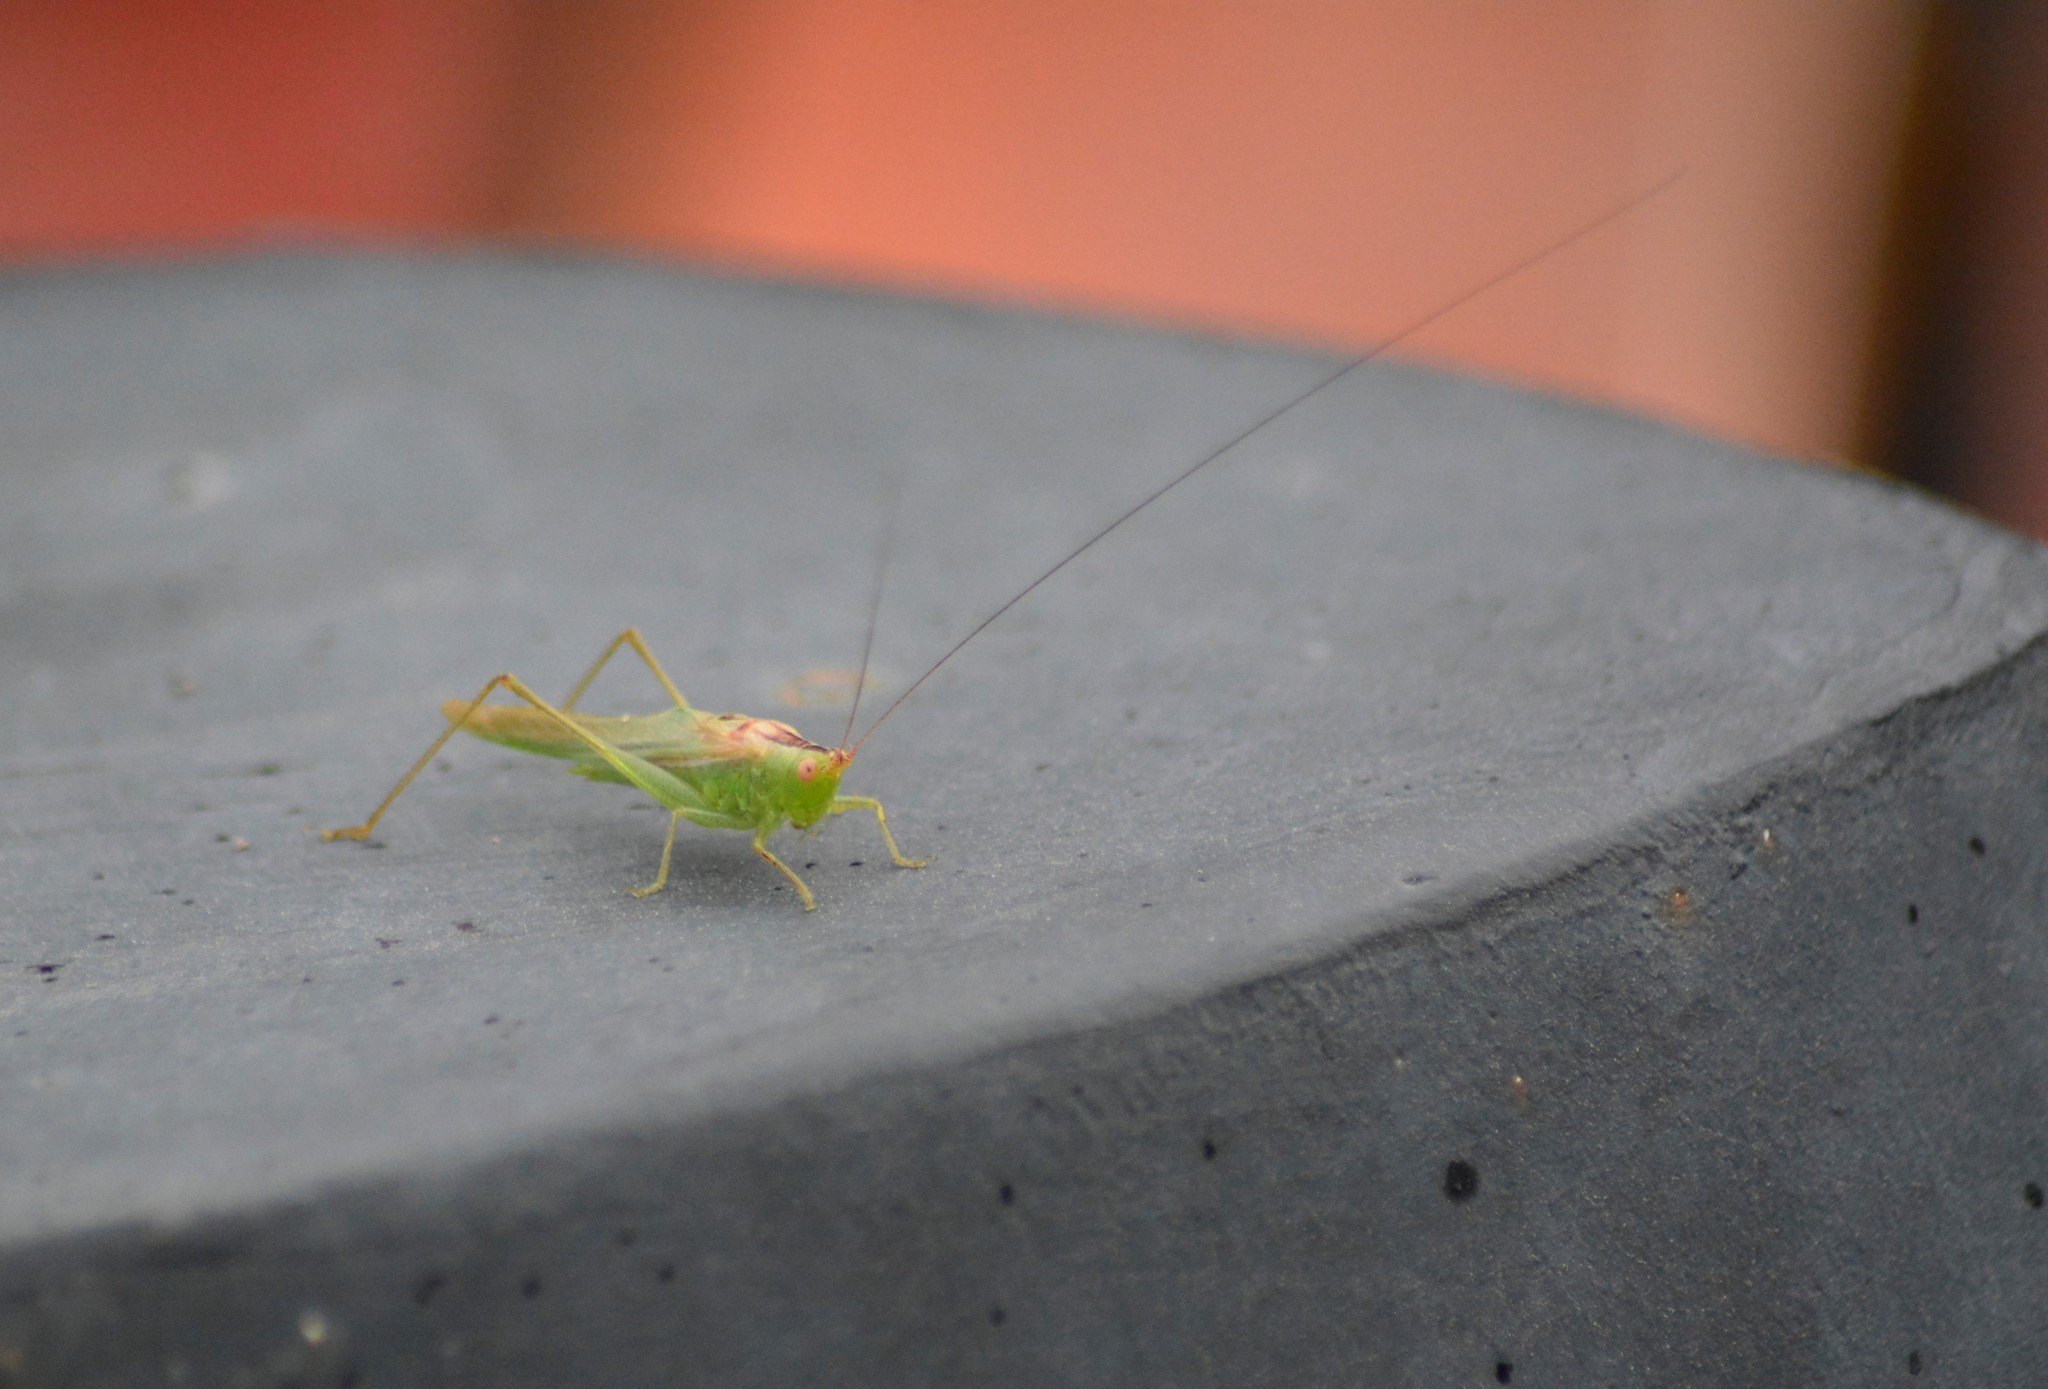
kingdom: Animalia
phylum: Arthropoda
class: Insecta
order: Orthoptera
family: Tettigoniidae
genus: Conocephalus
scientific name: Conocephalus longipes
